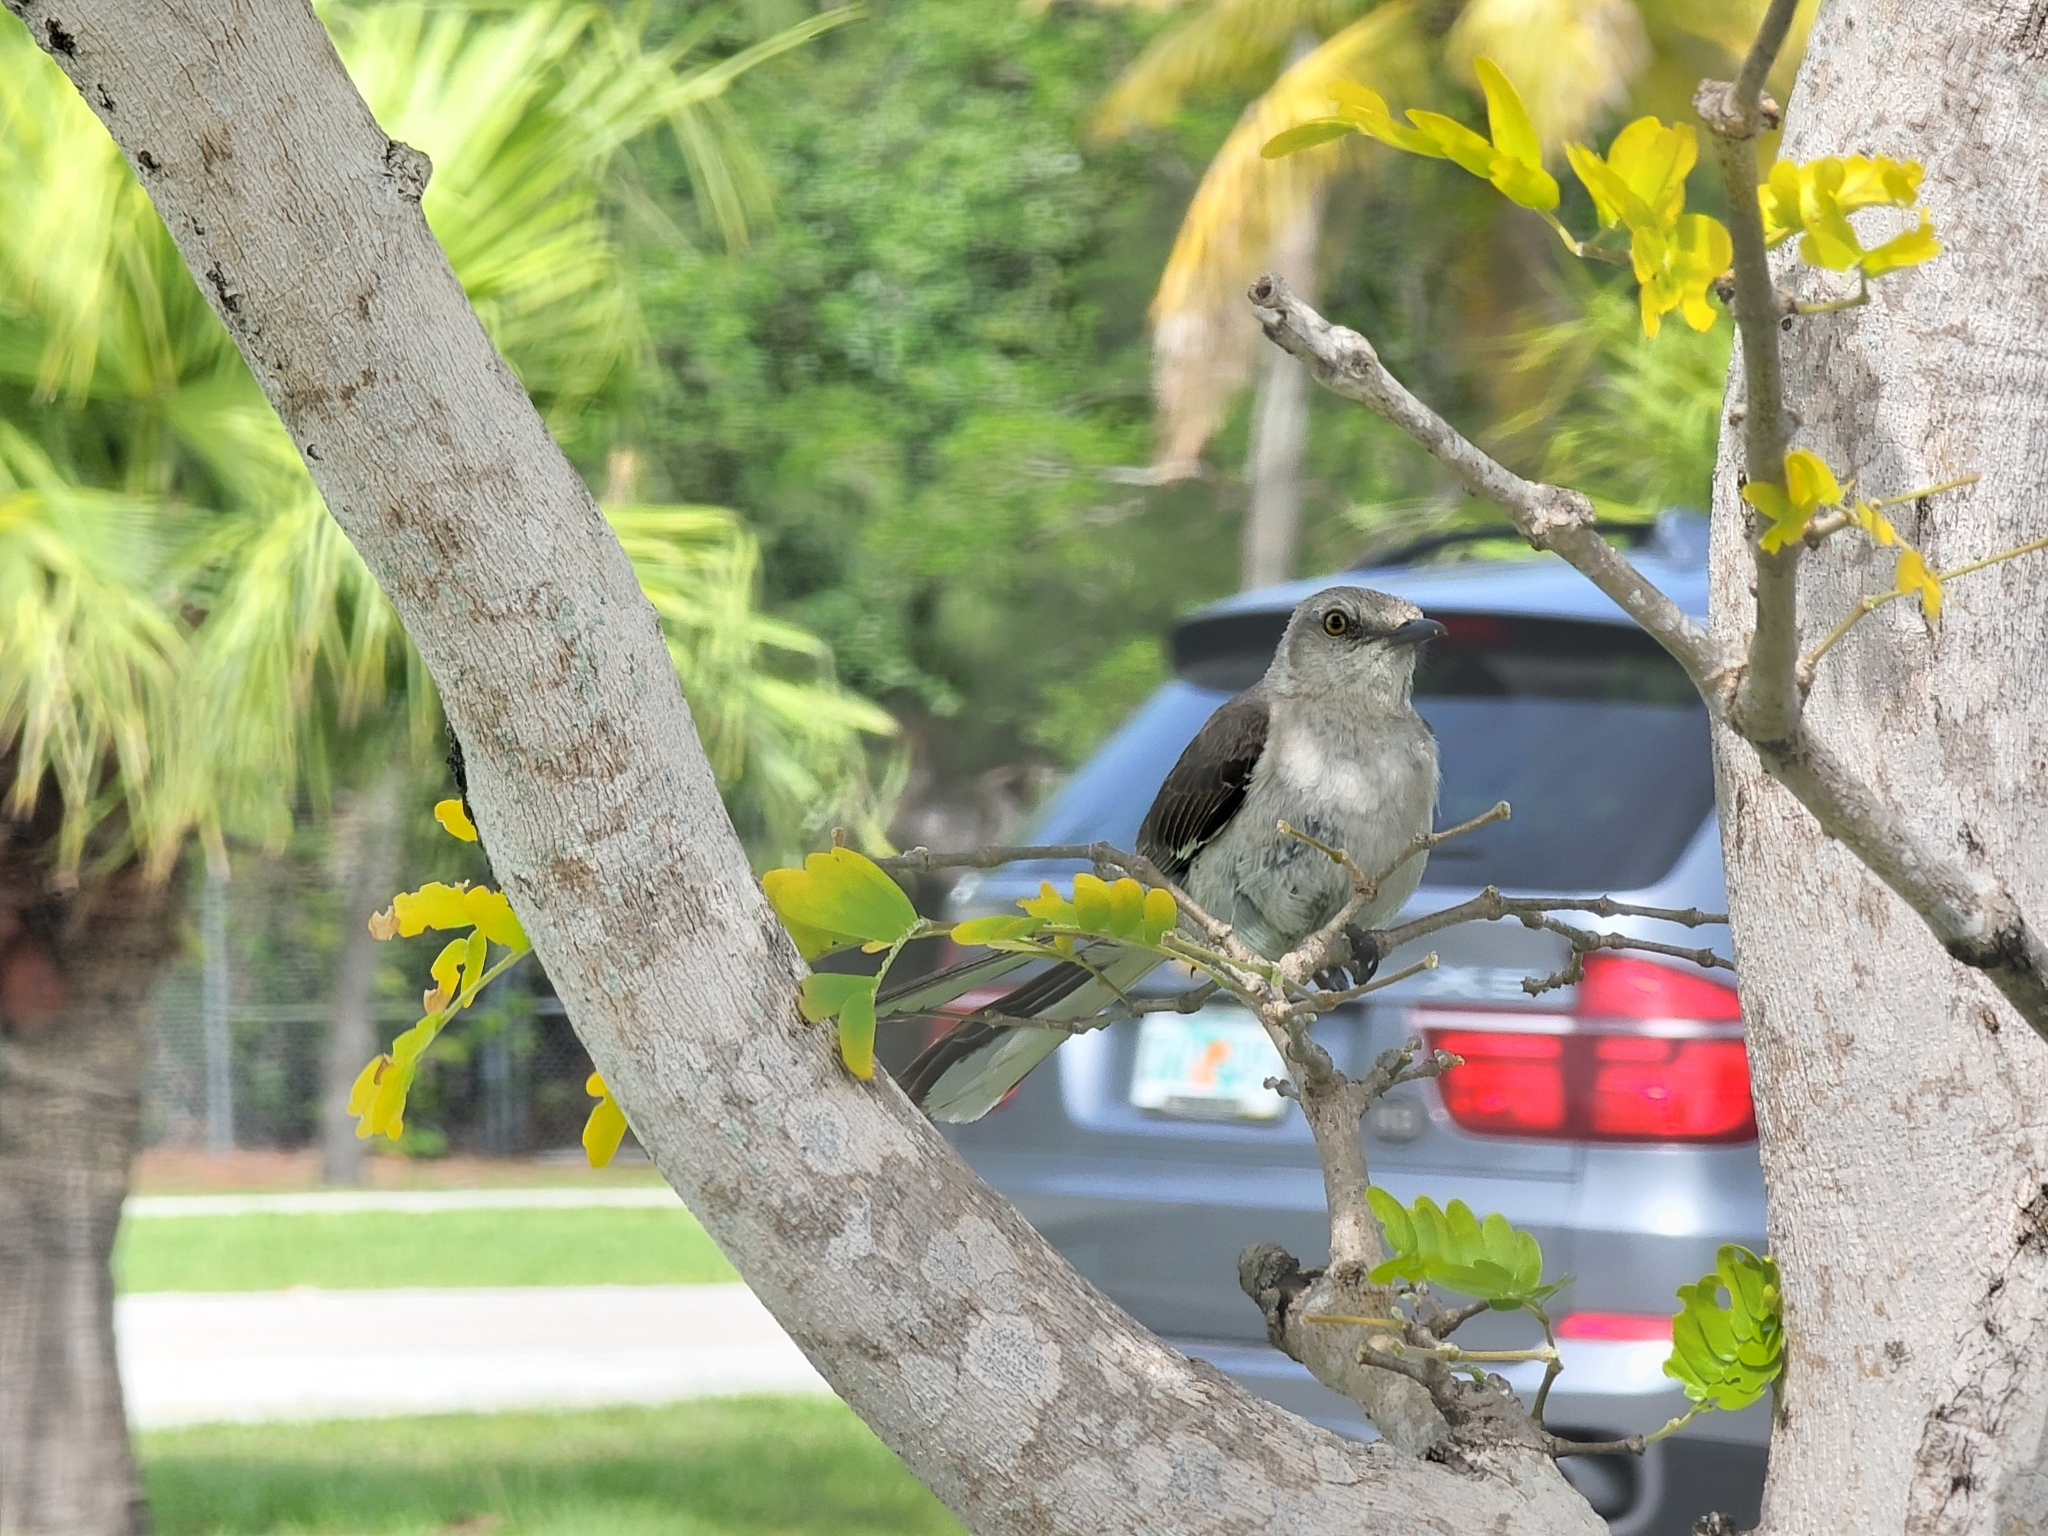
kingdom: Animalia
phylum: Chordata
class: Aves
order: Passeriformes
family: Mimidae
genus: Mimus
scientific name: Mimus polyglottos
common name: Northern mockingbird
